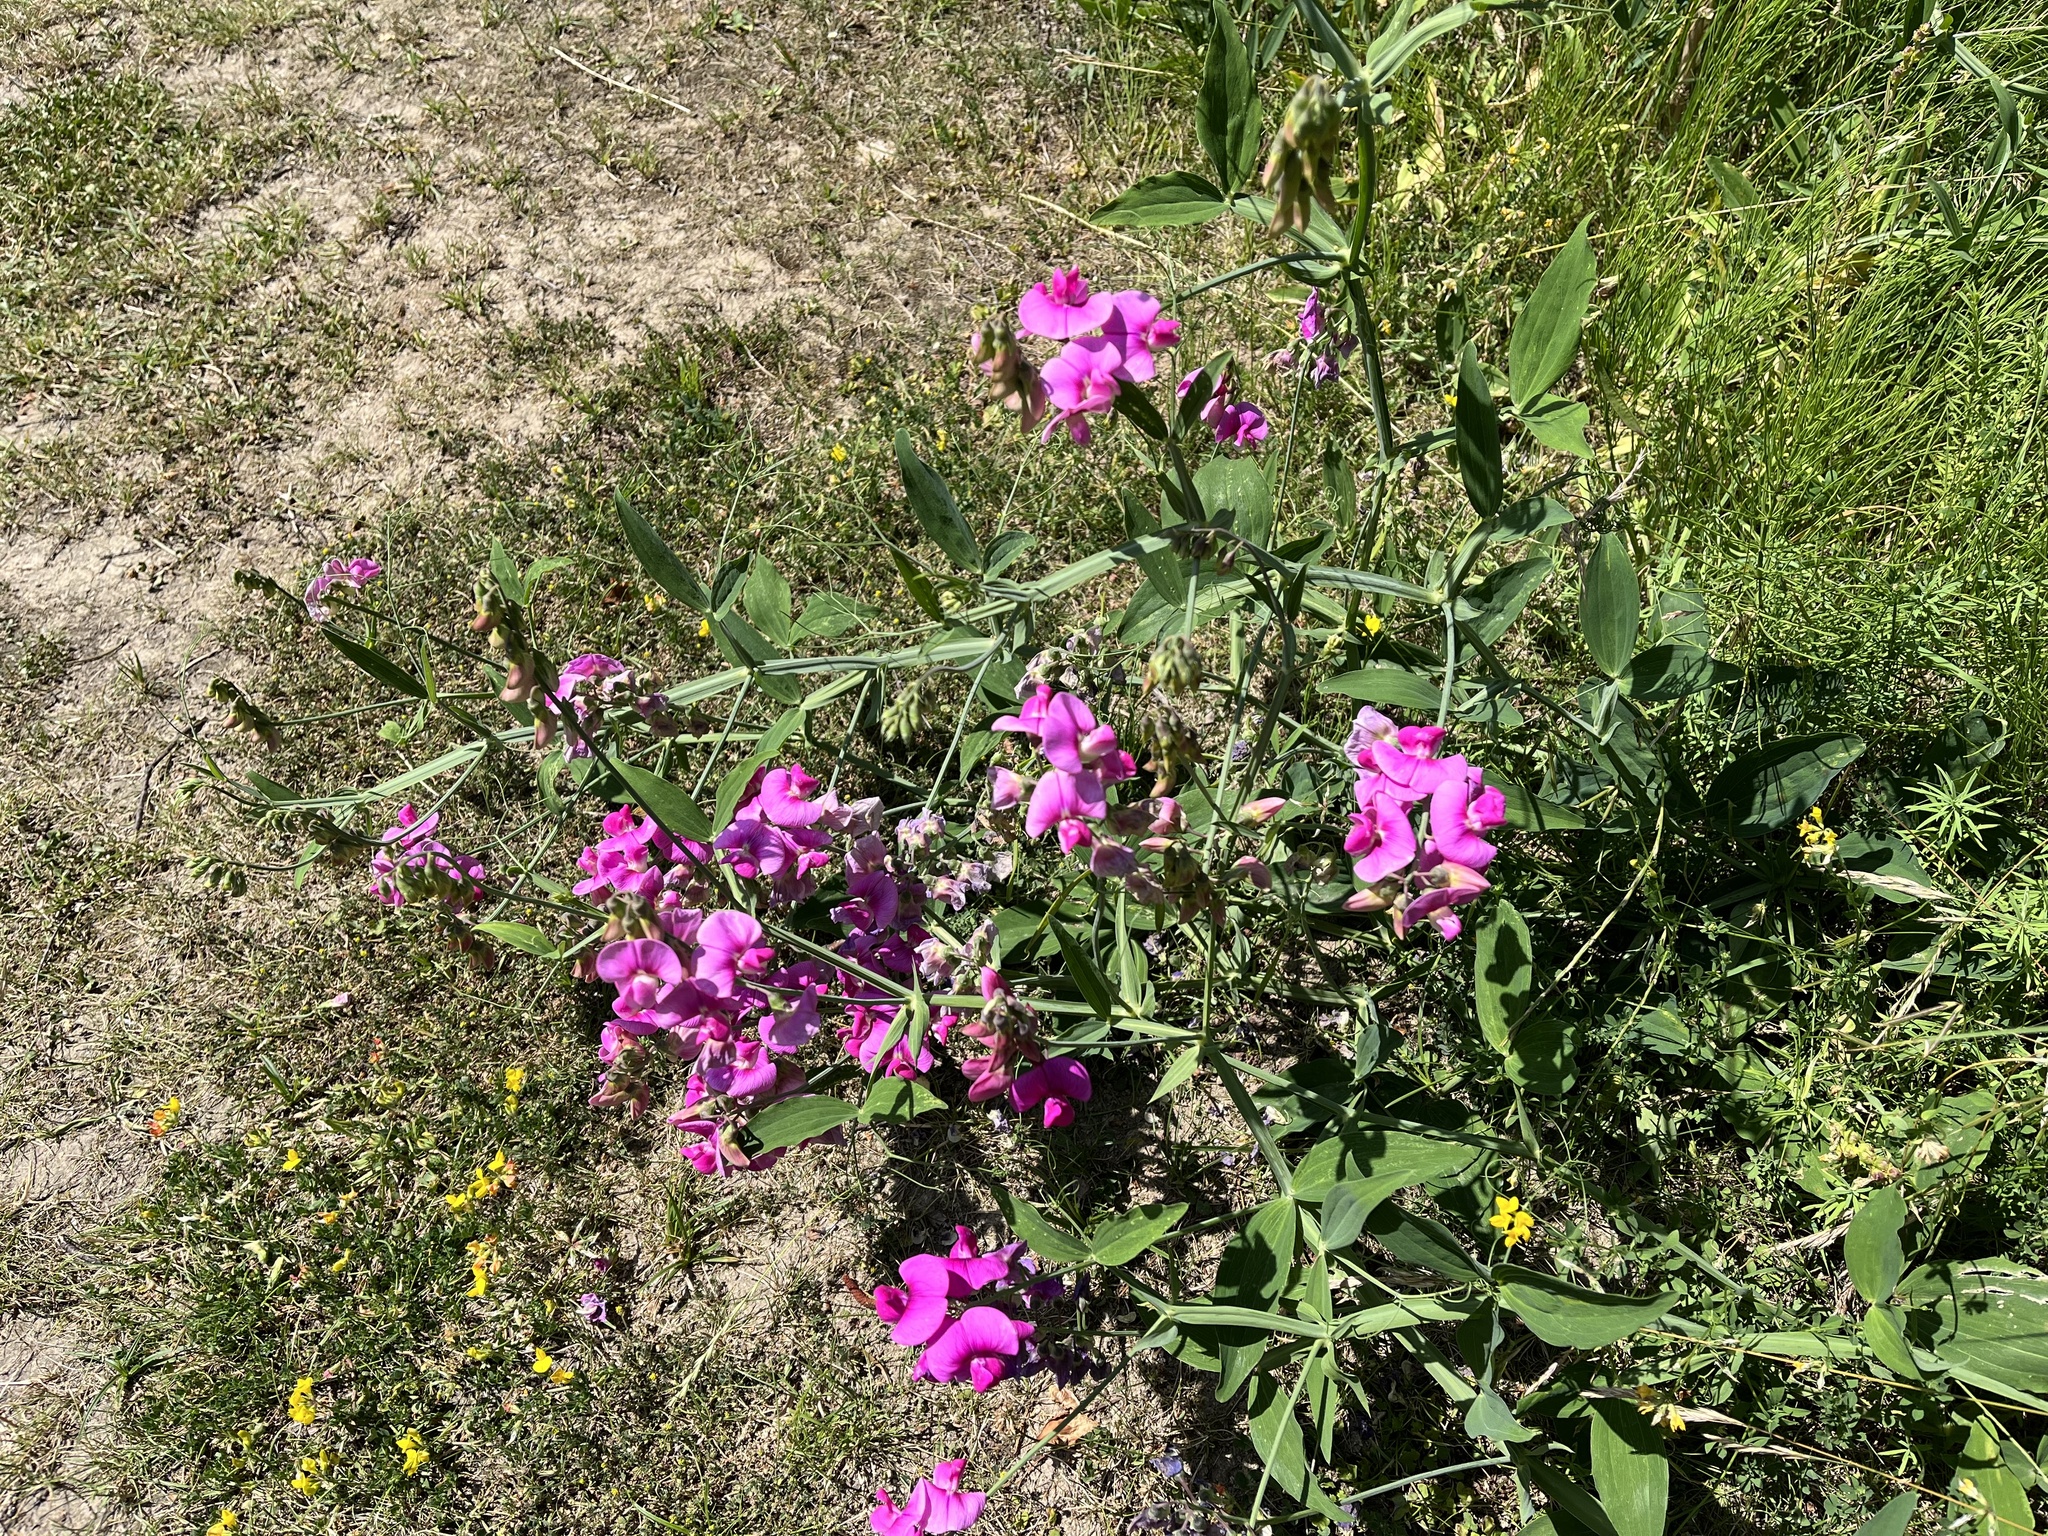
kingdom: Plantae
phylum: Tracheophyta
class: Magnoliopsida
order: Fabales
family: Fabaceae
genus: Lathyrus
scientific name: Lathyrus latifolius
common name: Perennial pea
